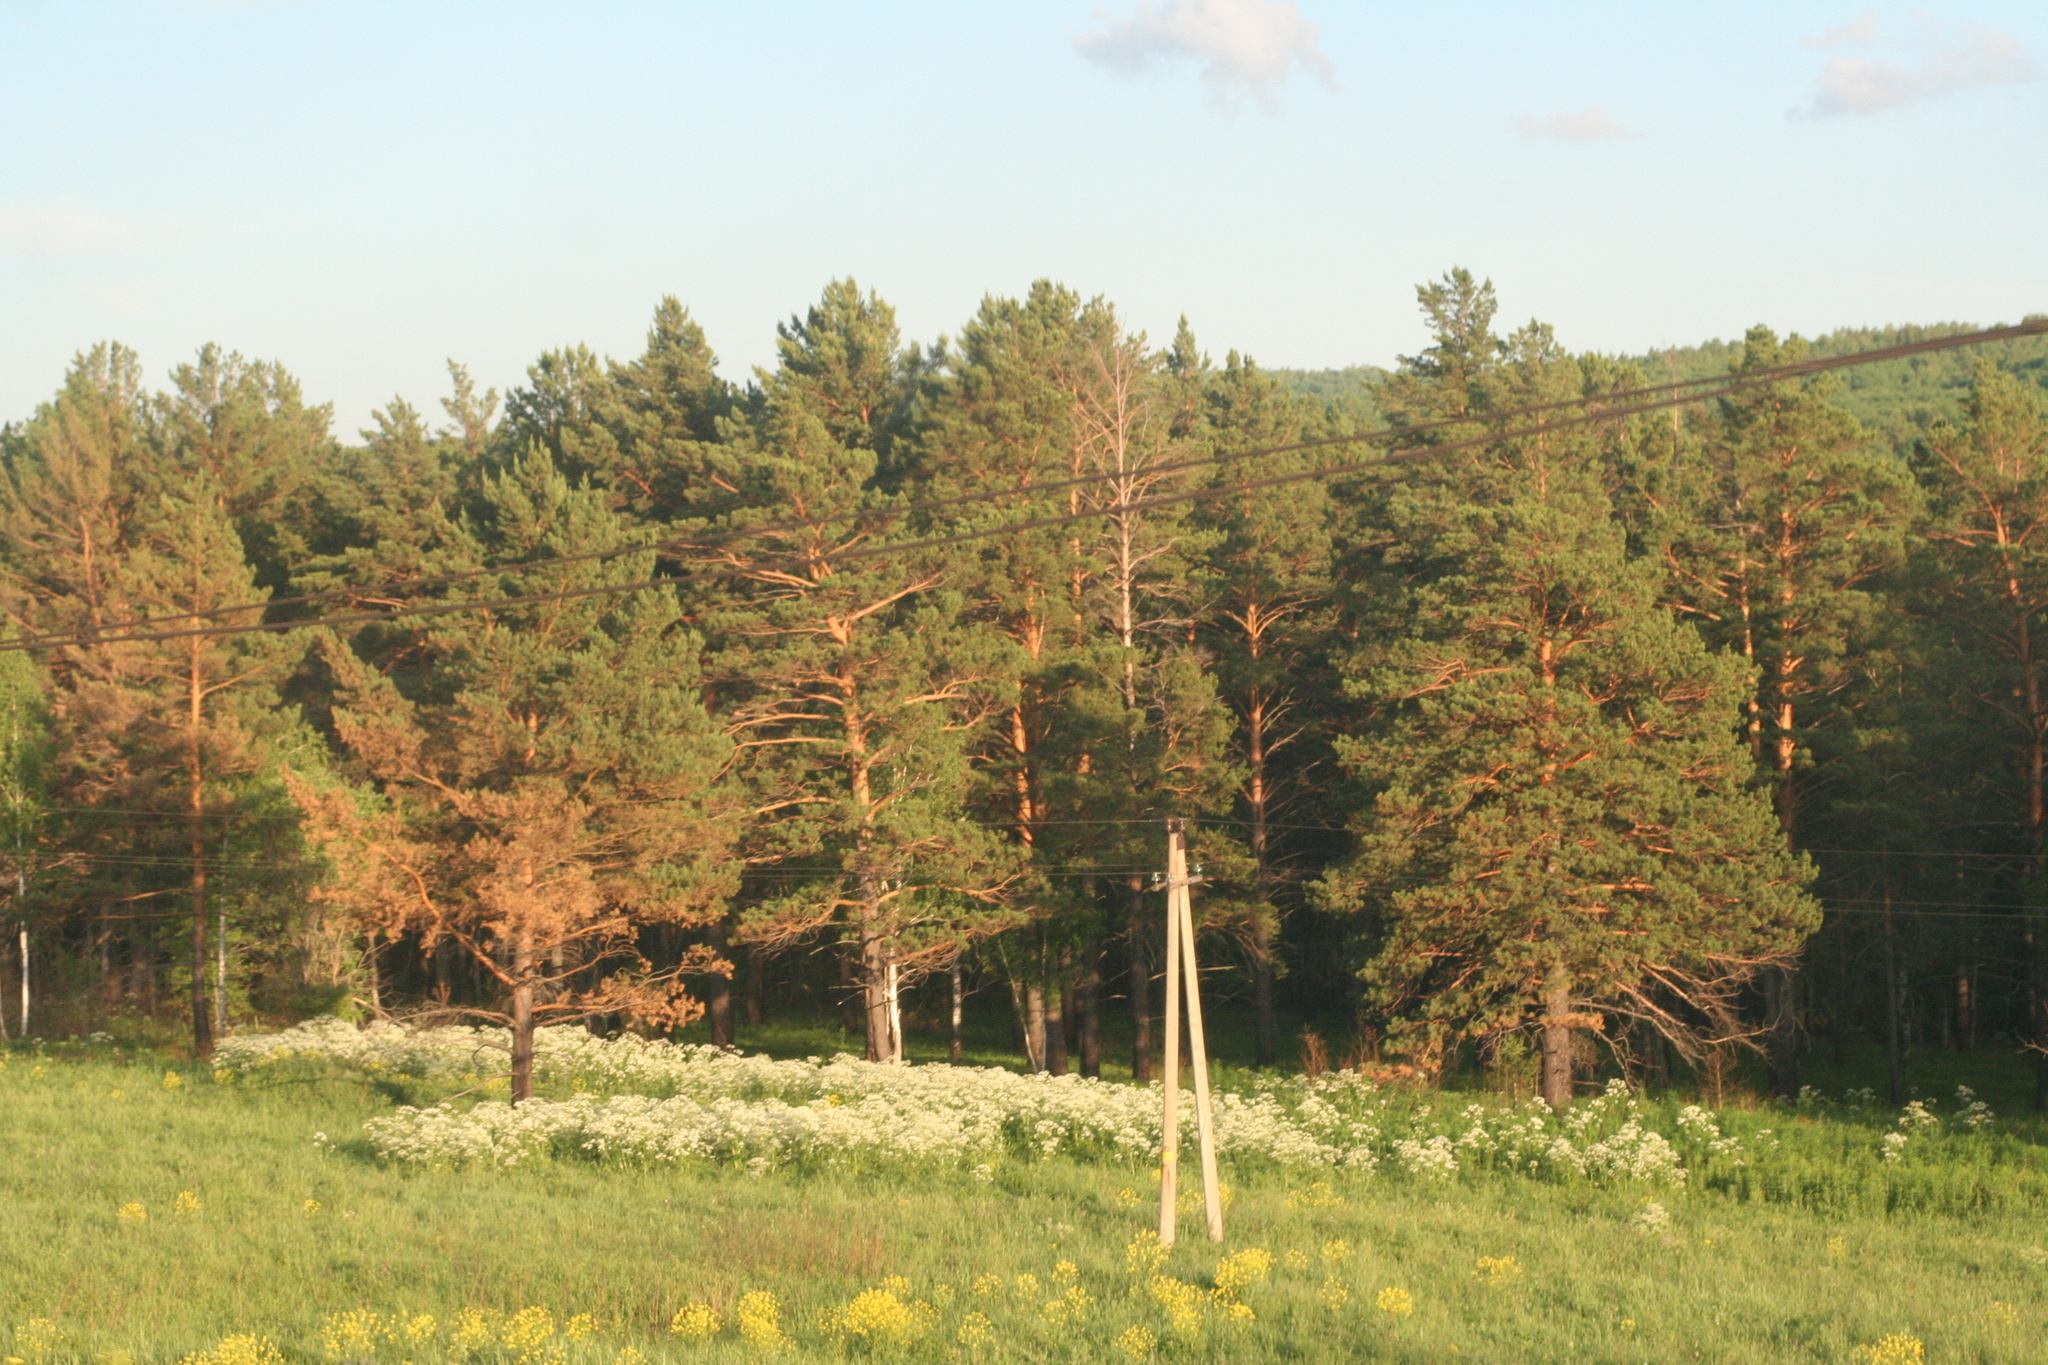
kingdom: Plantae
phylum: Tracheophyta
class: Pinopsida
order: Pinales
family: Pinaceae
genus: Pinus
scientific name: Pinus sylvestris
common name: Scots pine
